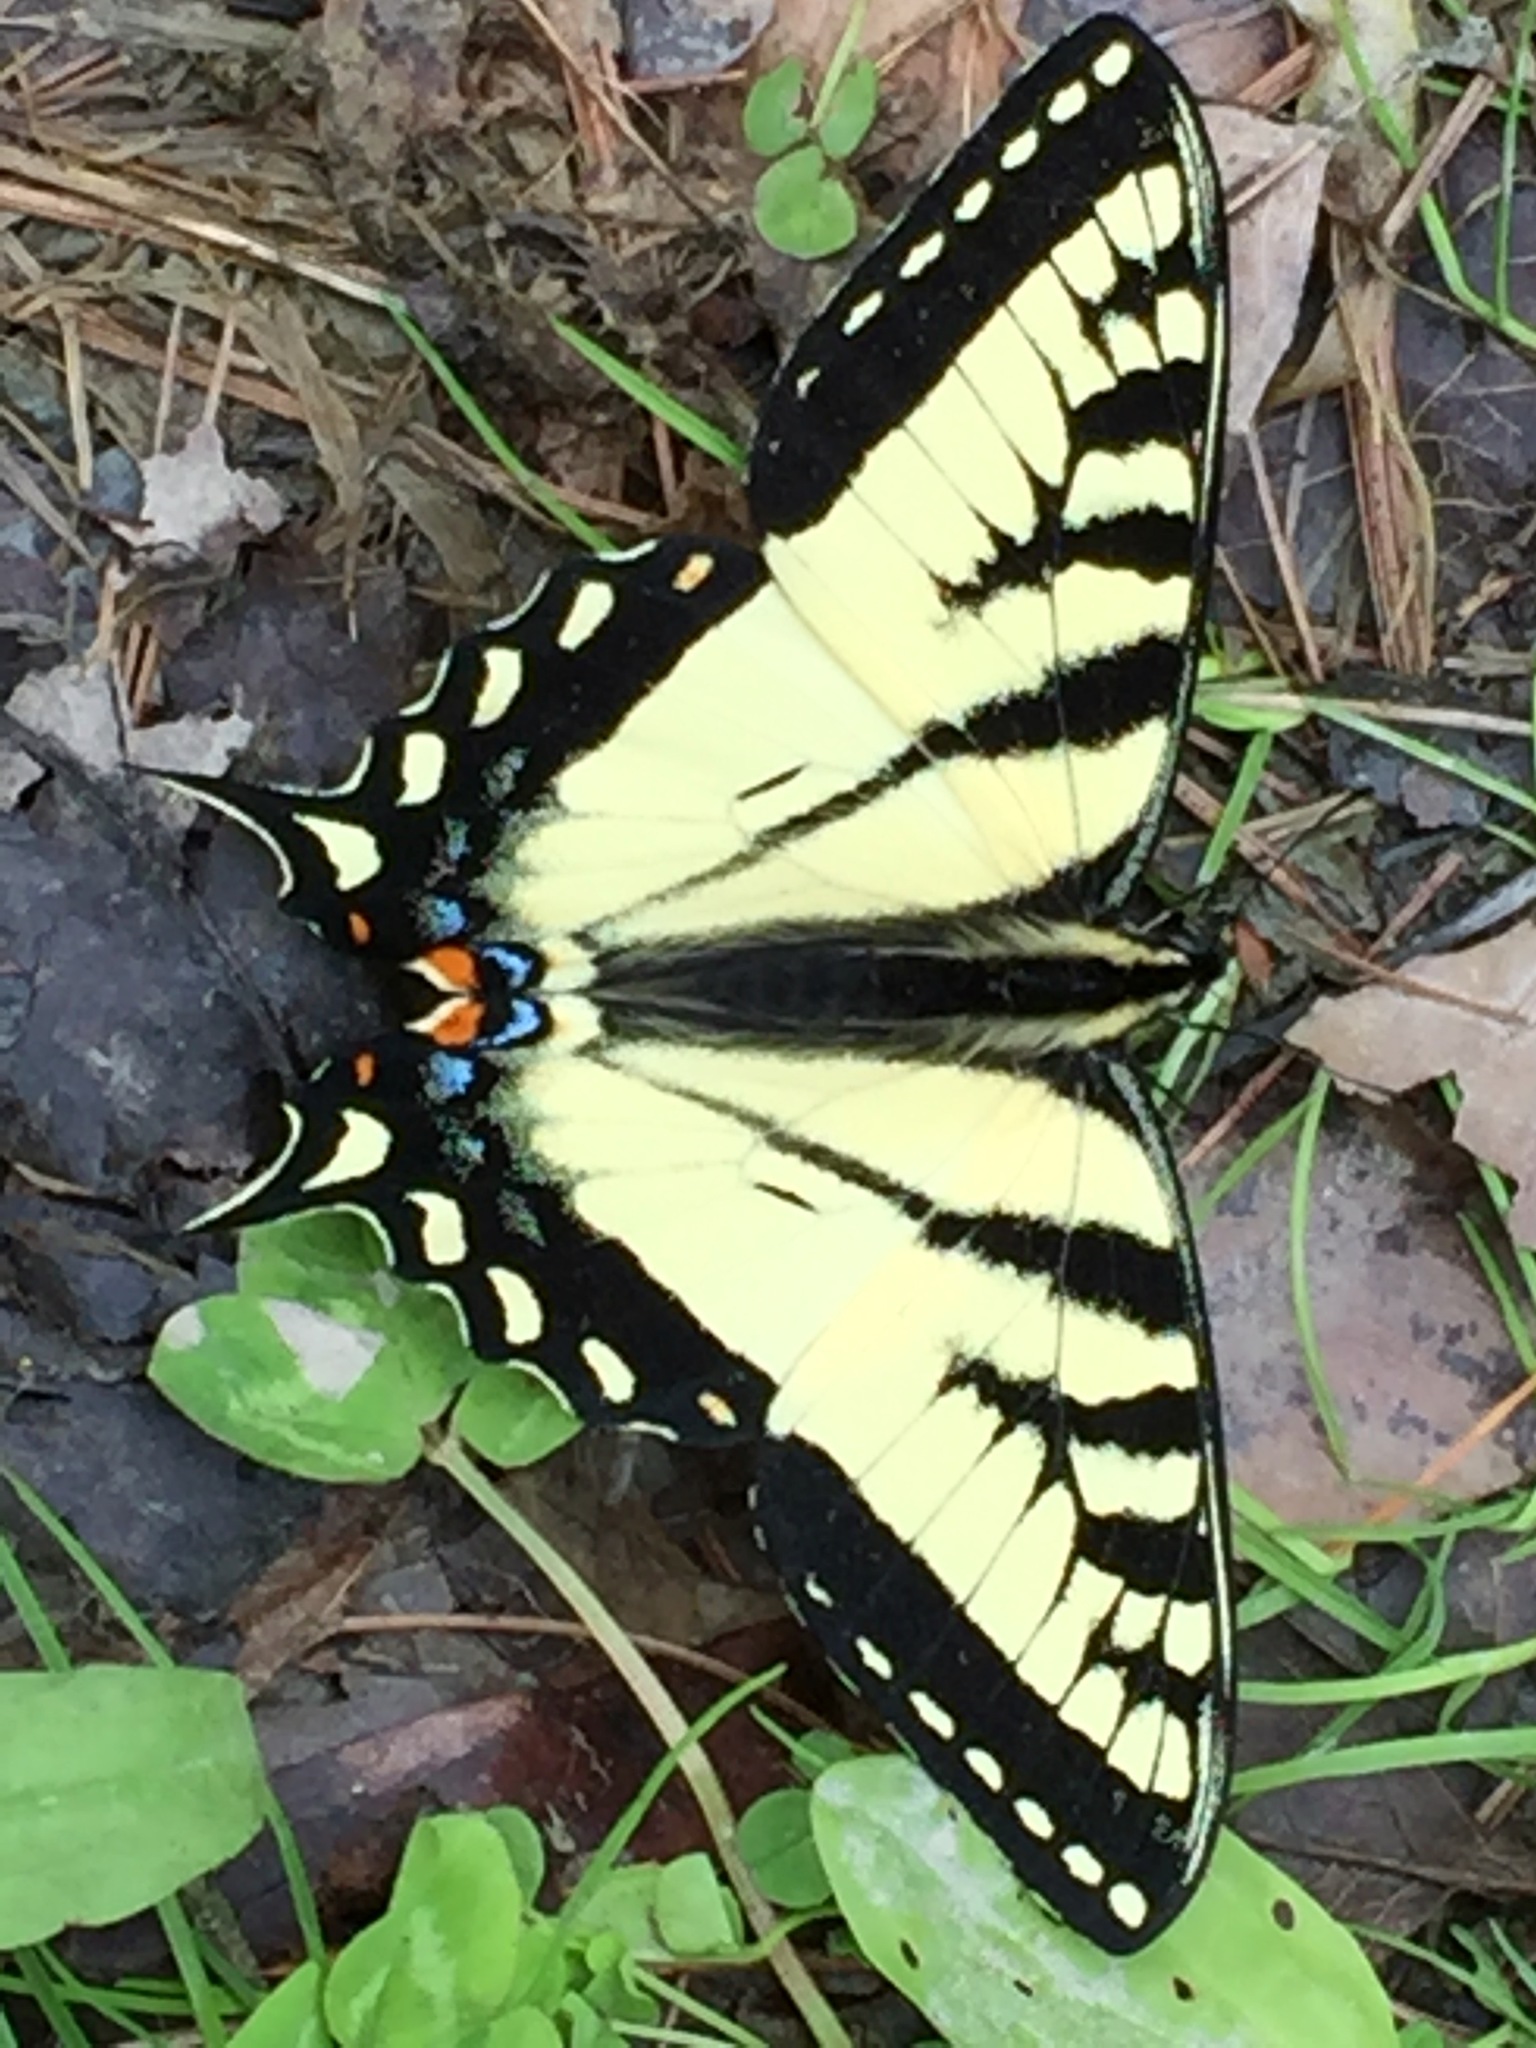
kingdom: Animalia
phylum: Arthropoda
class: Insecta
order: Lepidoptera
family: Papilionidae
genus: Papilio
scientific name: Papilio canadensis
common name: Canadian tiger swallowtail
